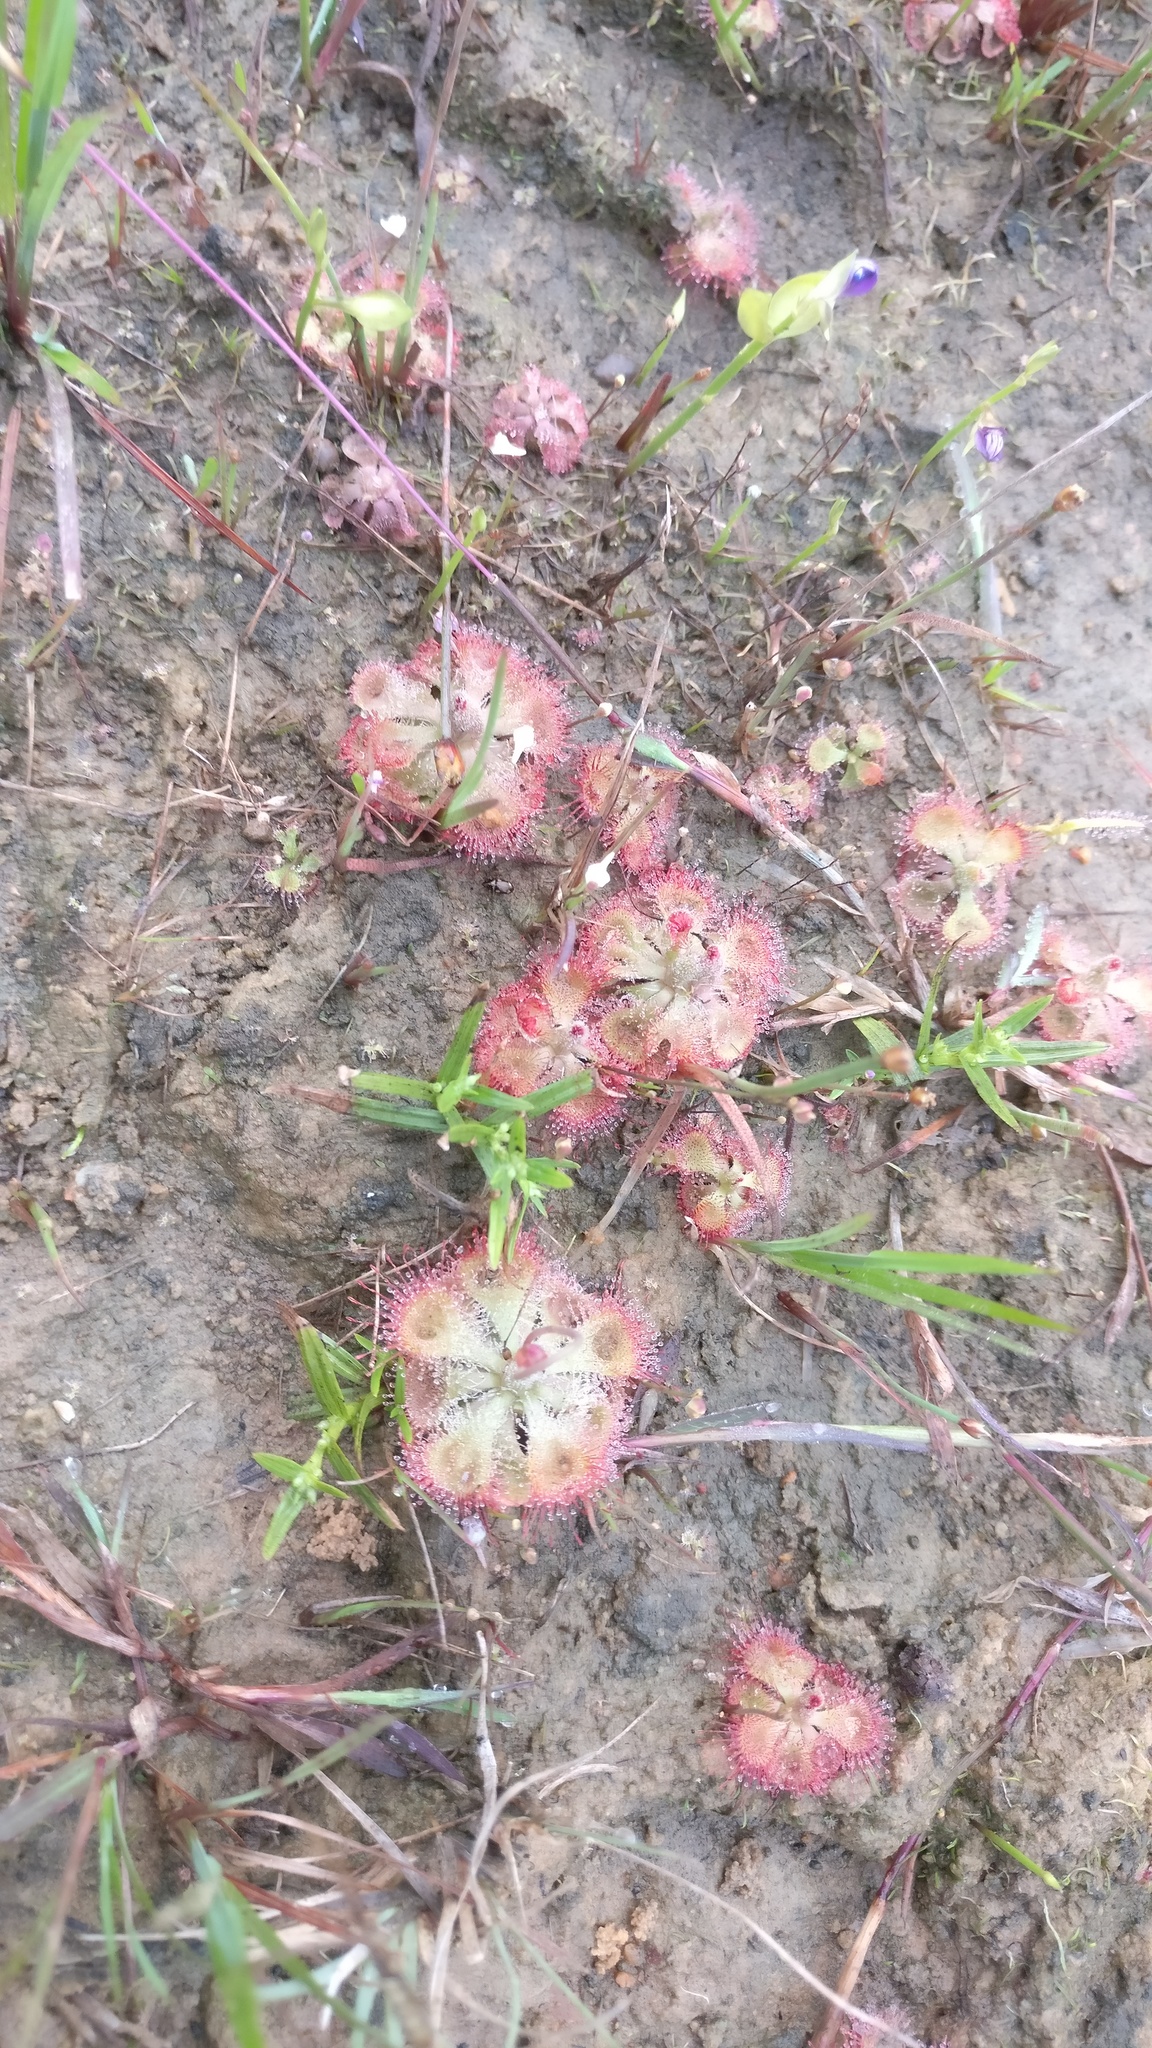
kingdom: Plantae
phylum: Tracheophyta
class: Magnoliopsida
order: Caryophyllales
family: Droseraceae
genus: Drosera
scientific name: Drosera spatulata
